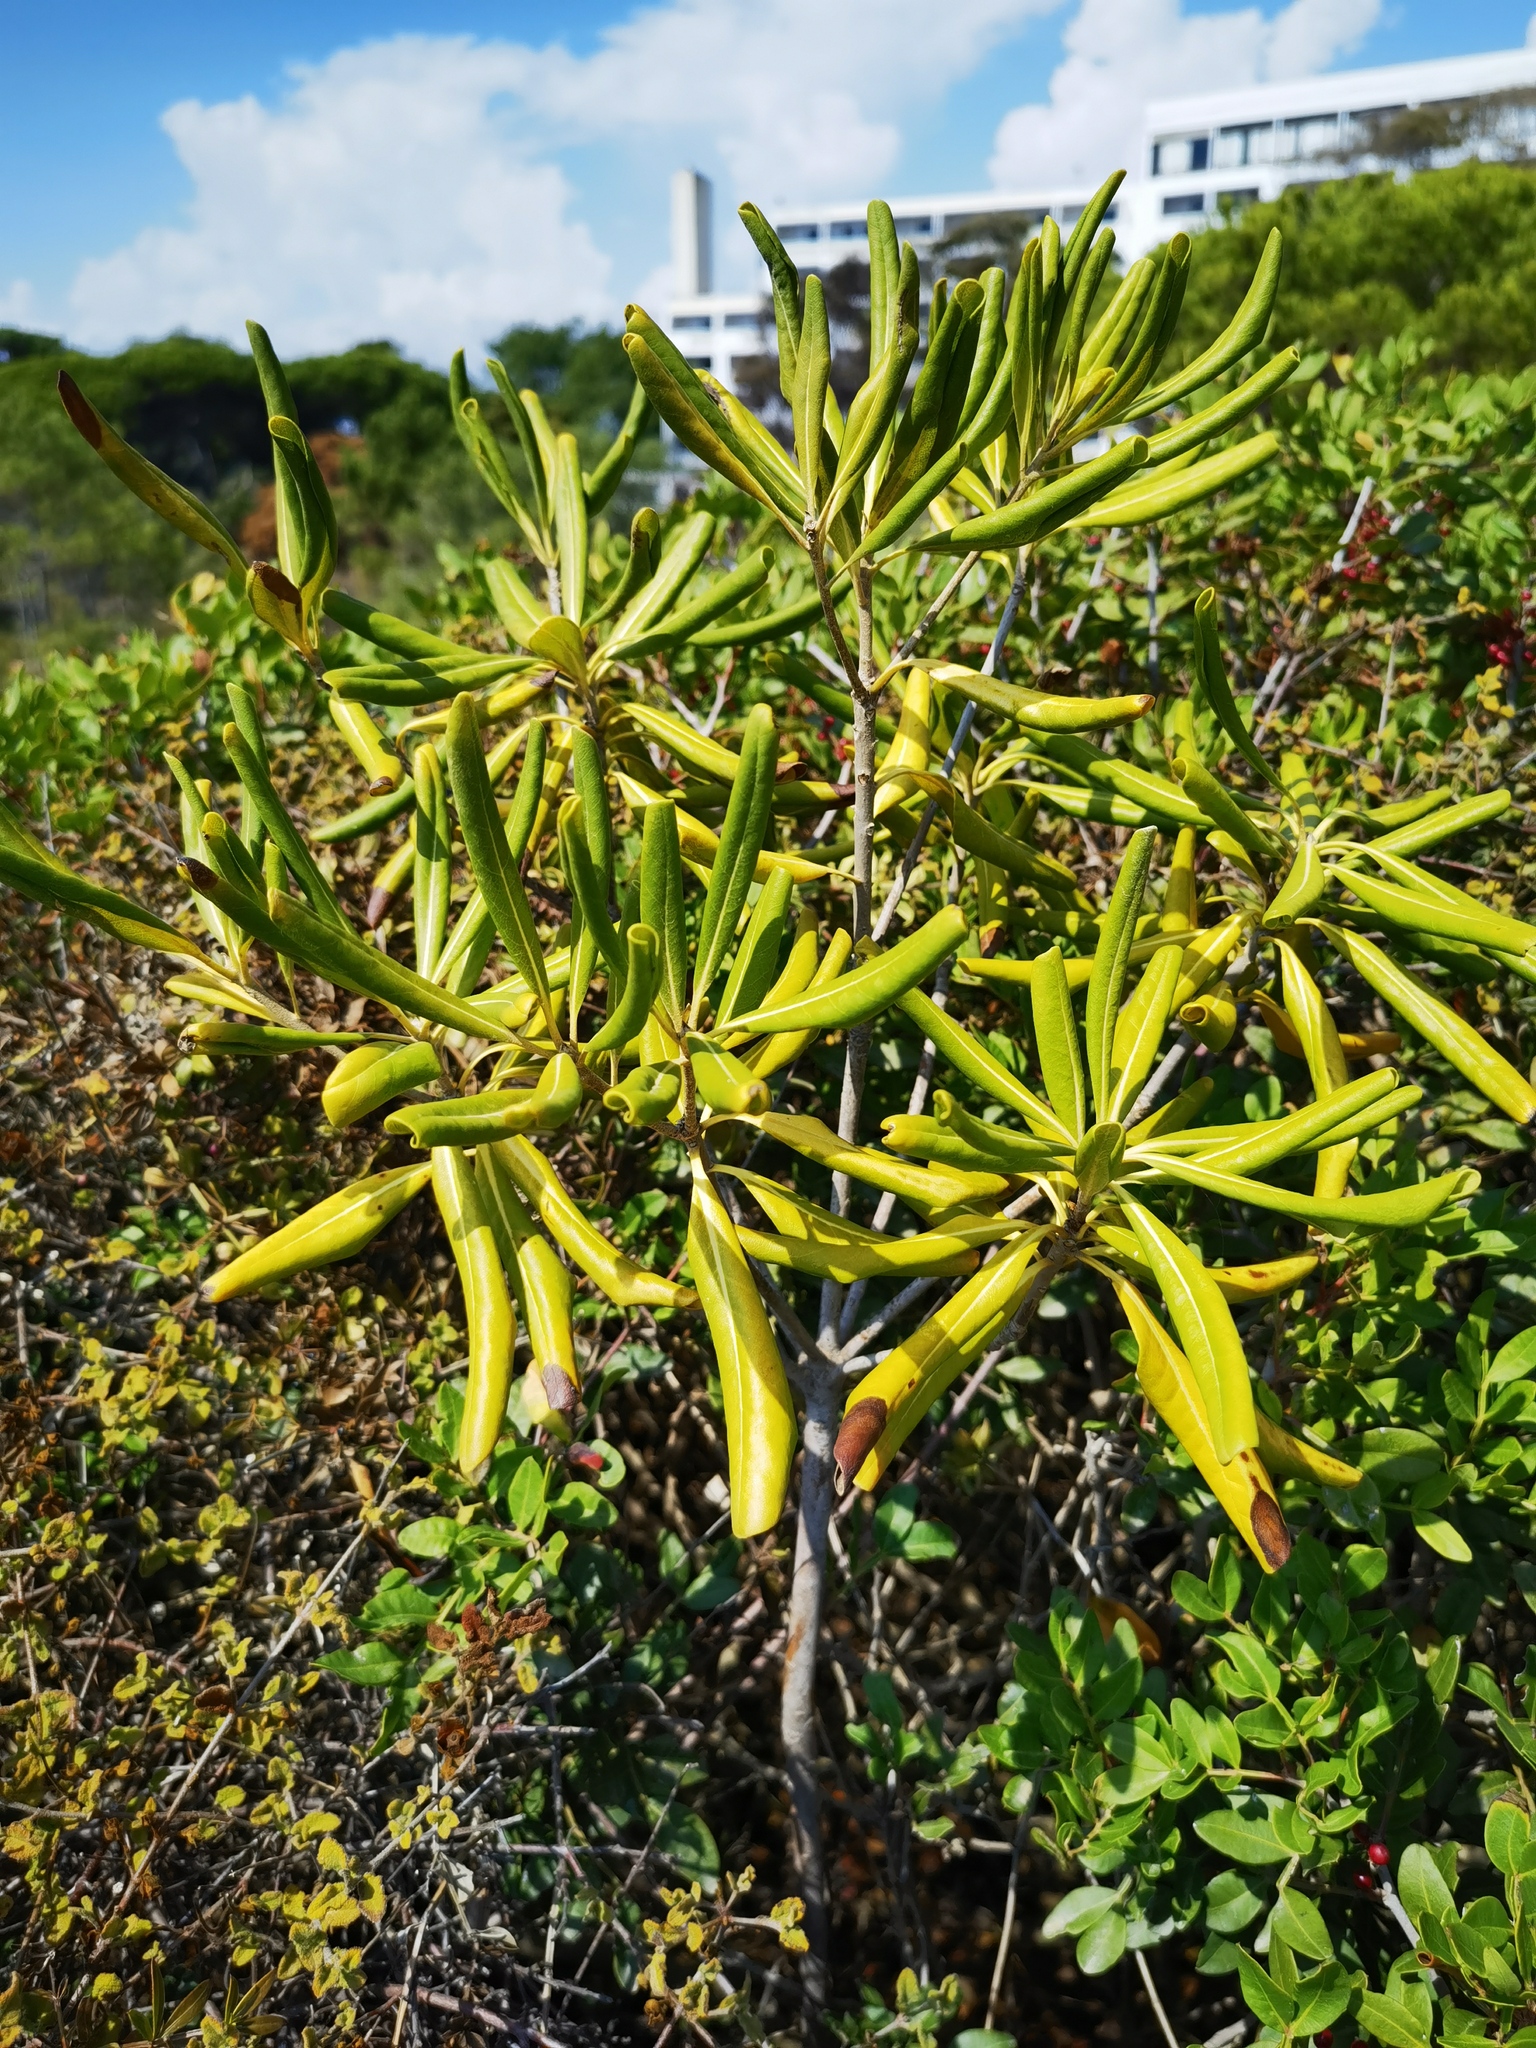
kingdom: Plantae
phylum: Tracheophyta
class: Magnoliopsida
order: Apiales
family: Pittosporaceae
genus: Pittosporum
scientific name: Pittosporum tobira
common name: Japanese cheesewood
